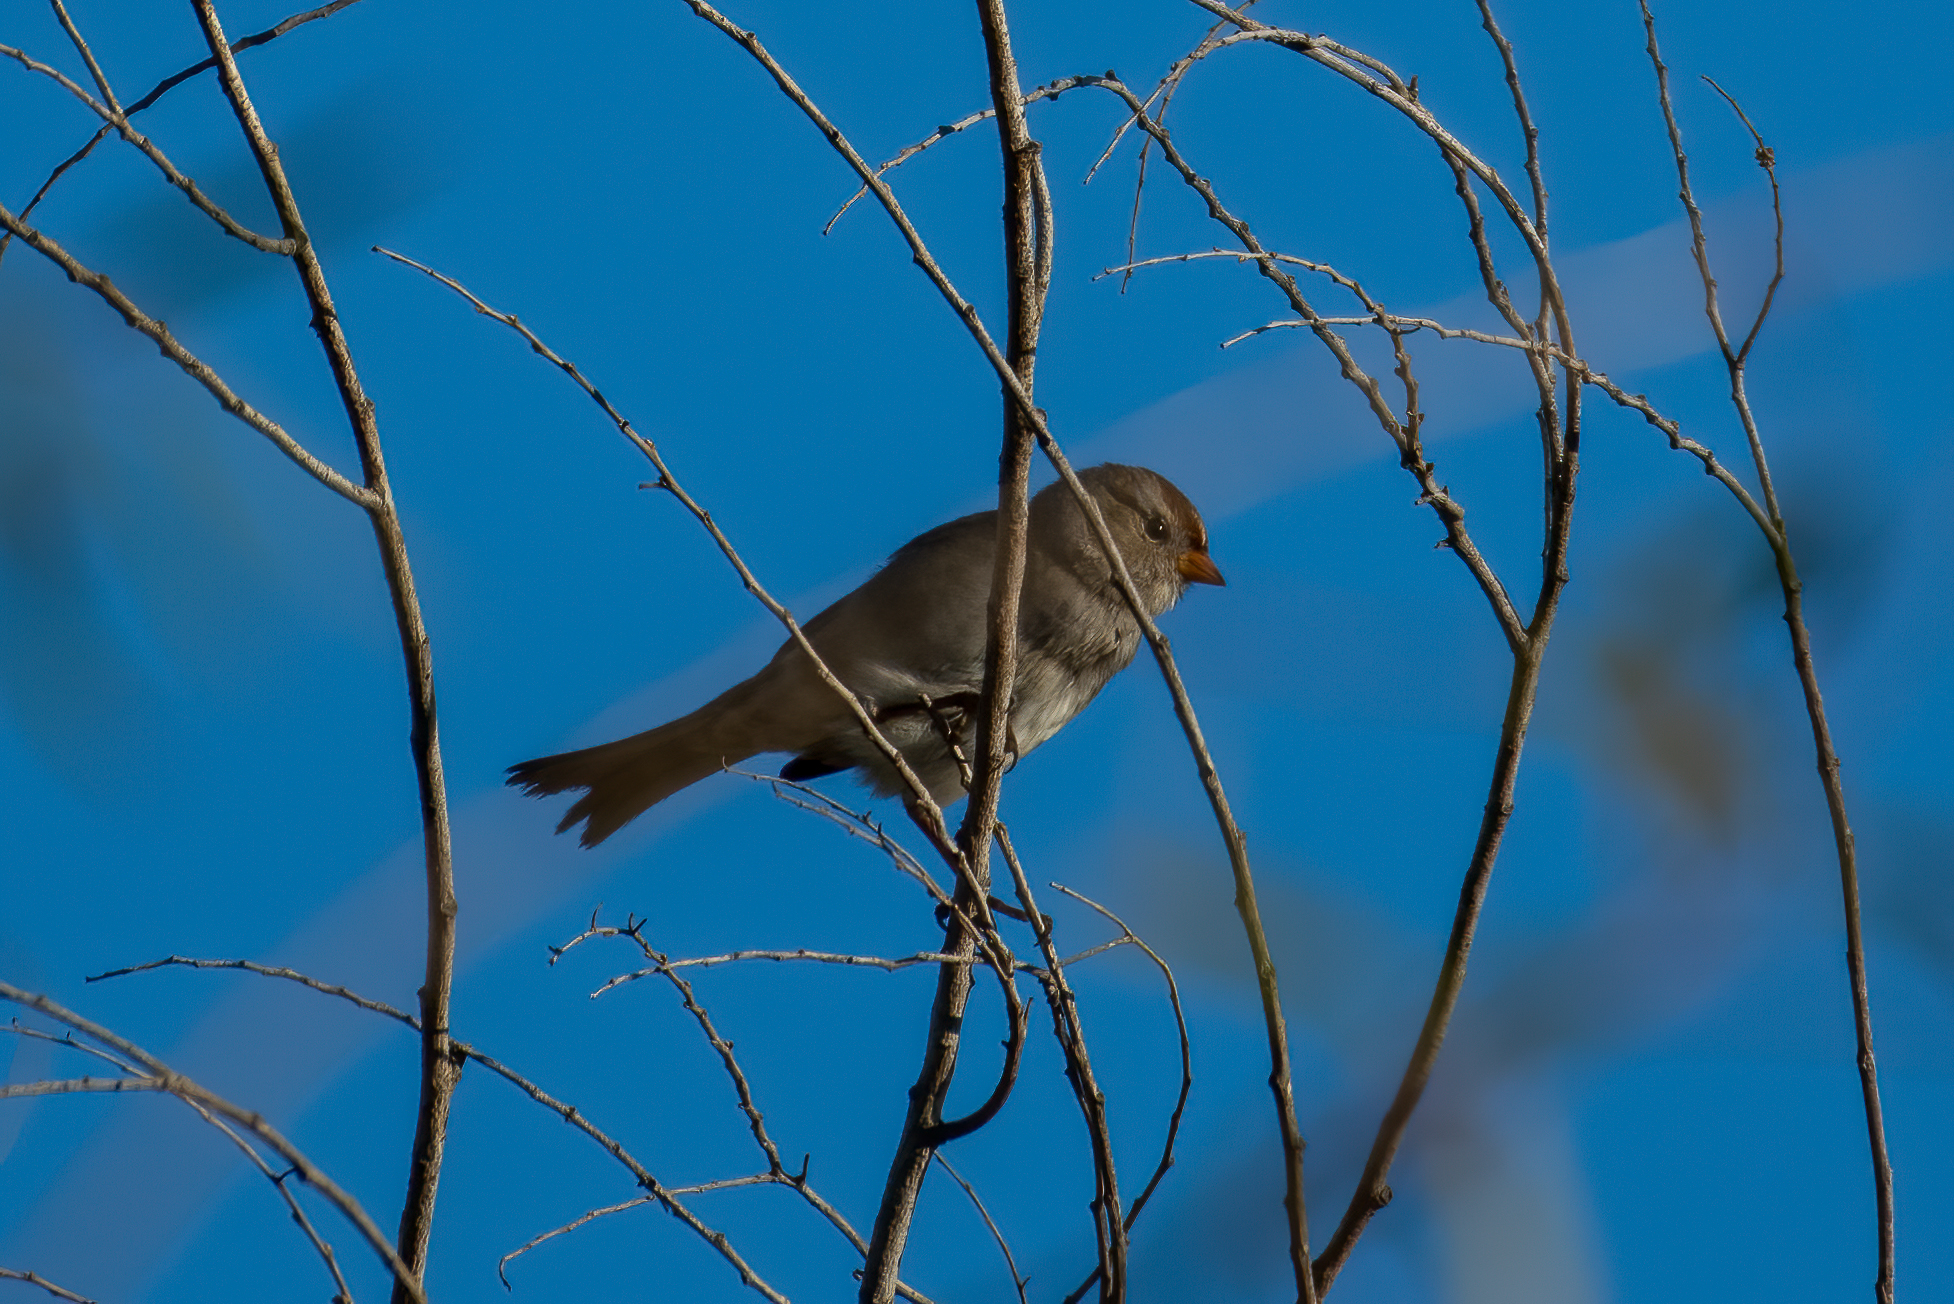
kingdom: Animalia
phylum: Chordata
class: Aves
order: Passeriformes
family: Passerellidae
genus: Zonotrichia
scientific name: Zonotrichia leucophrys
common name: White-crowned sparrow
